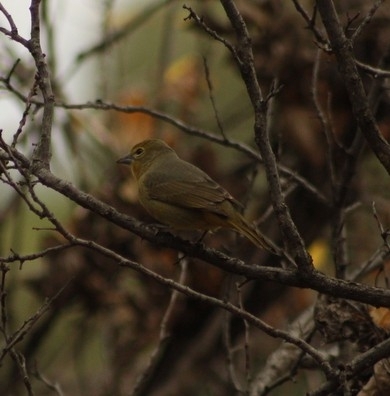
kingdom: Animalia
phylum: Chordata
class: Aves
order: Passeriformes
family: Cardinalidae
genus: Piranga
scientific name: Piranga flava
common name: Red tanager
